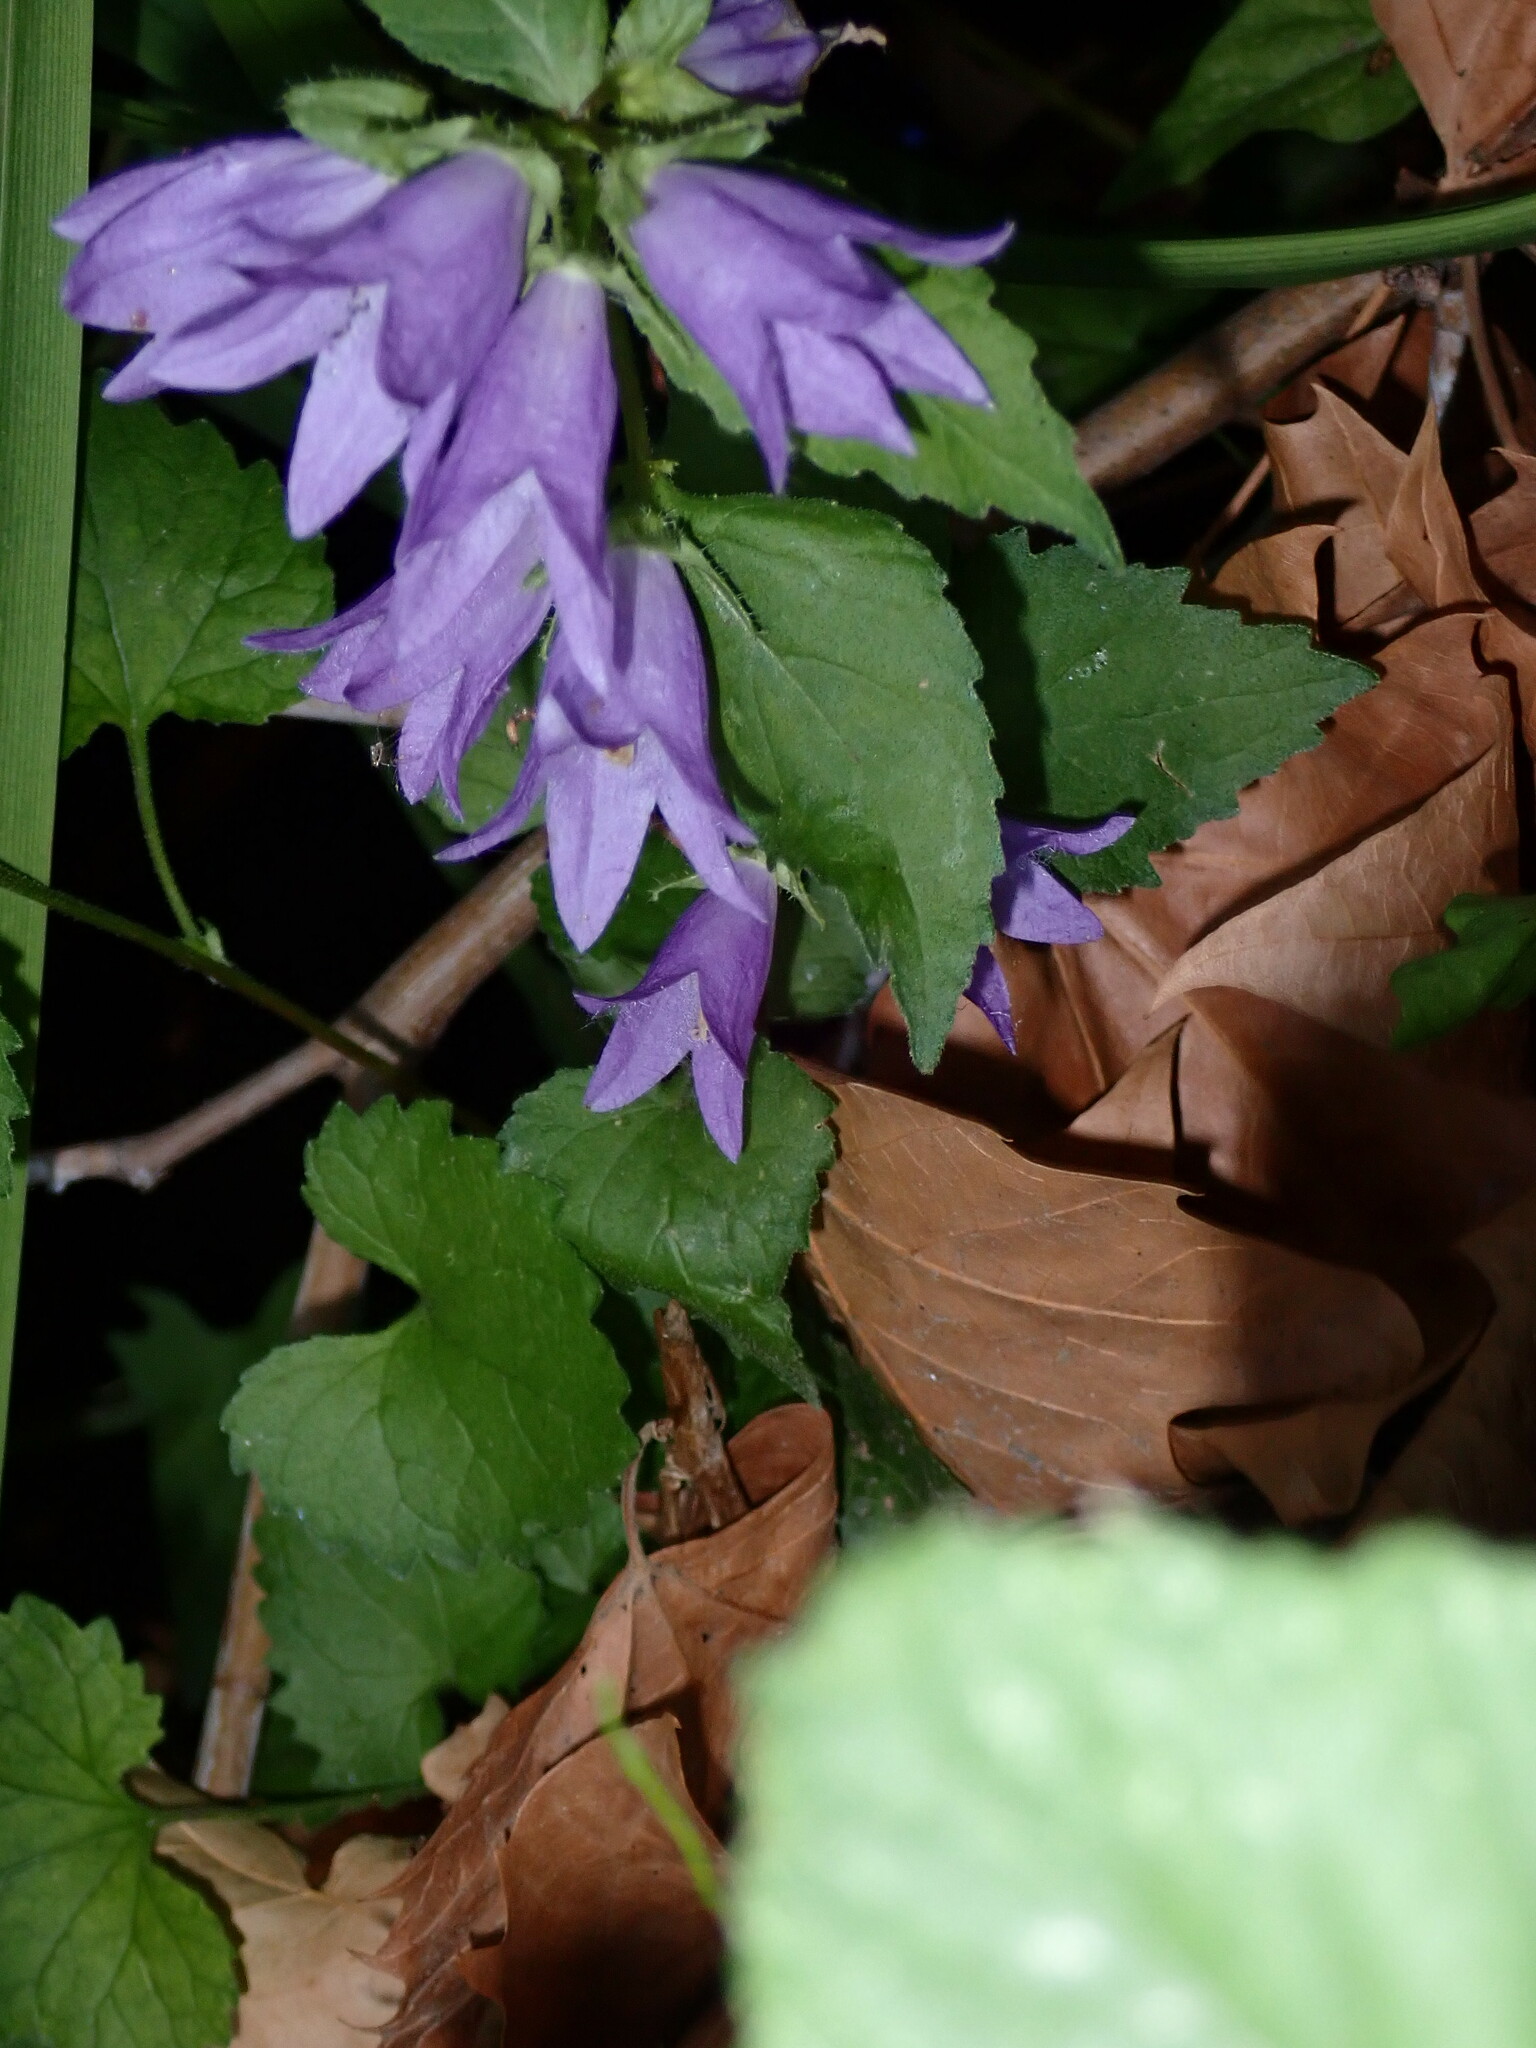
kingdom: Plantae
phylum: Tracheophyta
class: Magnoliopsida
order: Asterales
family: Campanulaceae
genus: Campanula
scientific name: Campanula trachelium
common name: Nettle-leaved bellflower
